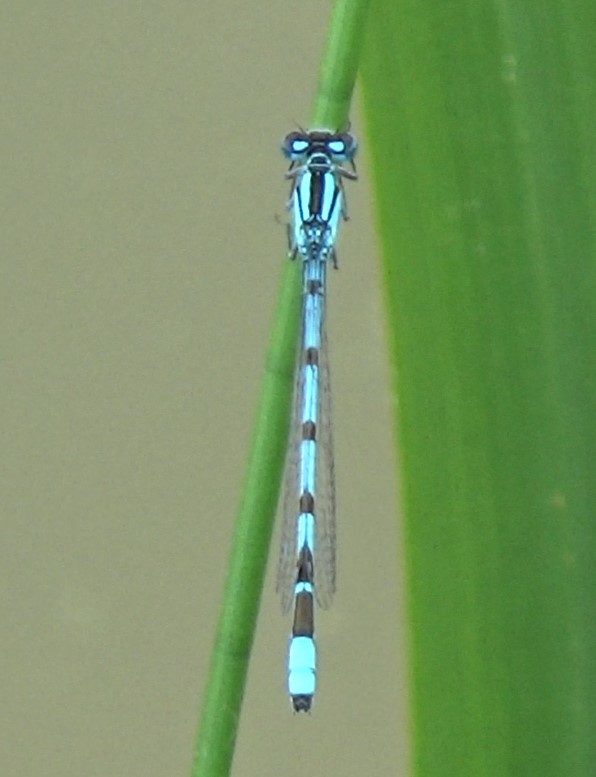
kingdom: Animalia
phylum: Arthropoda
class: Insecta
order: Odonata
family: Coenagrionidae
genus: Enallagma
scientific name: Enallagma cyathigerum
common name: Common blue damselfly
